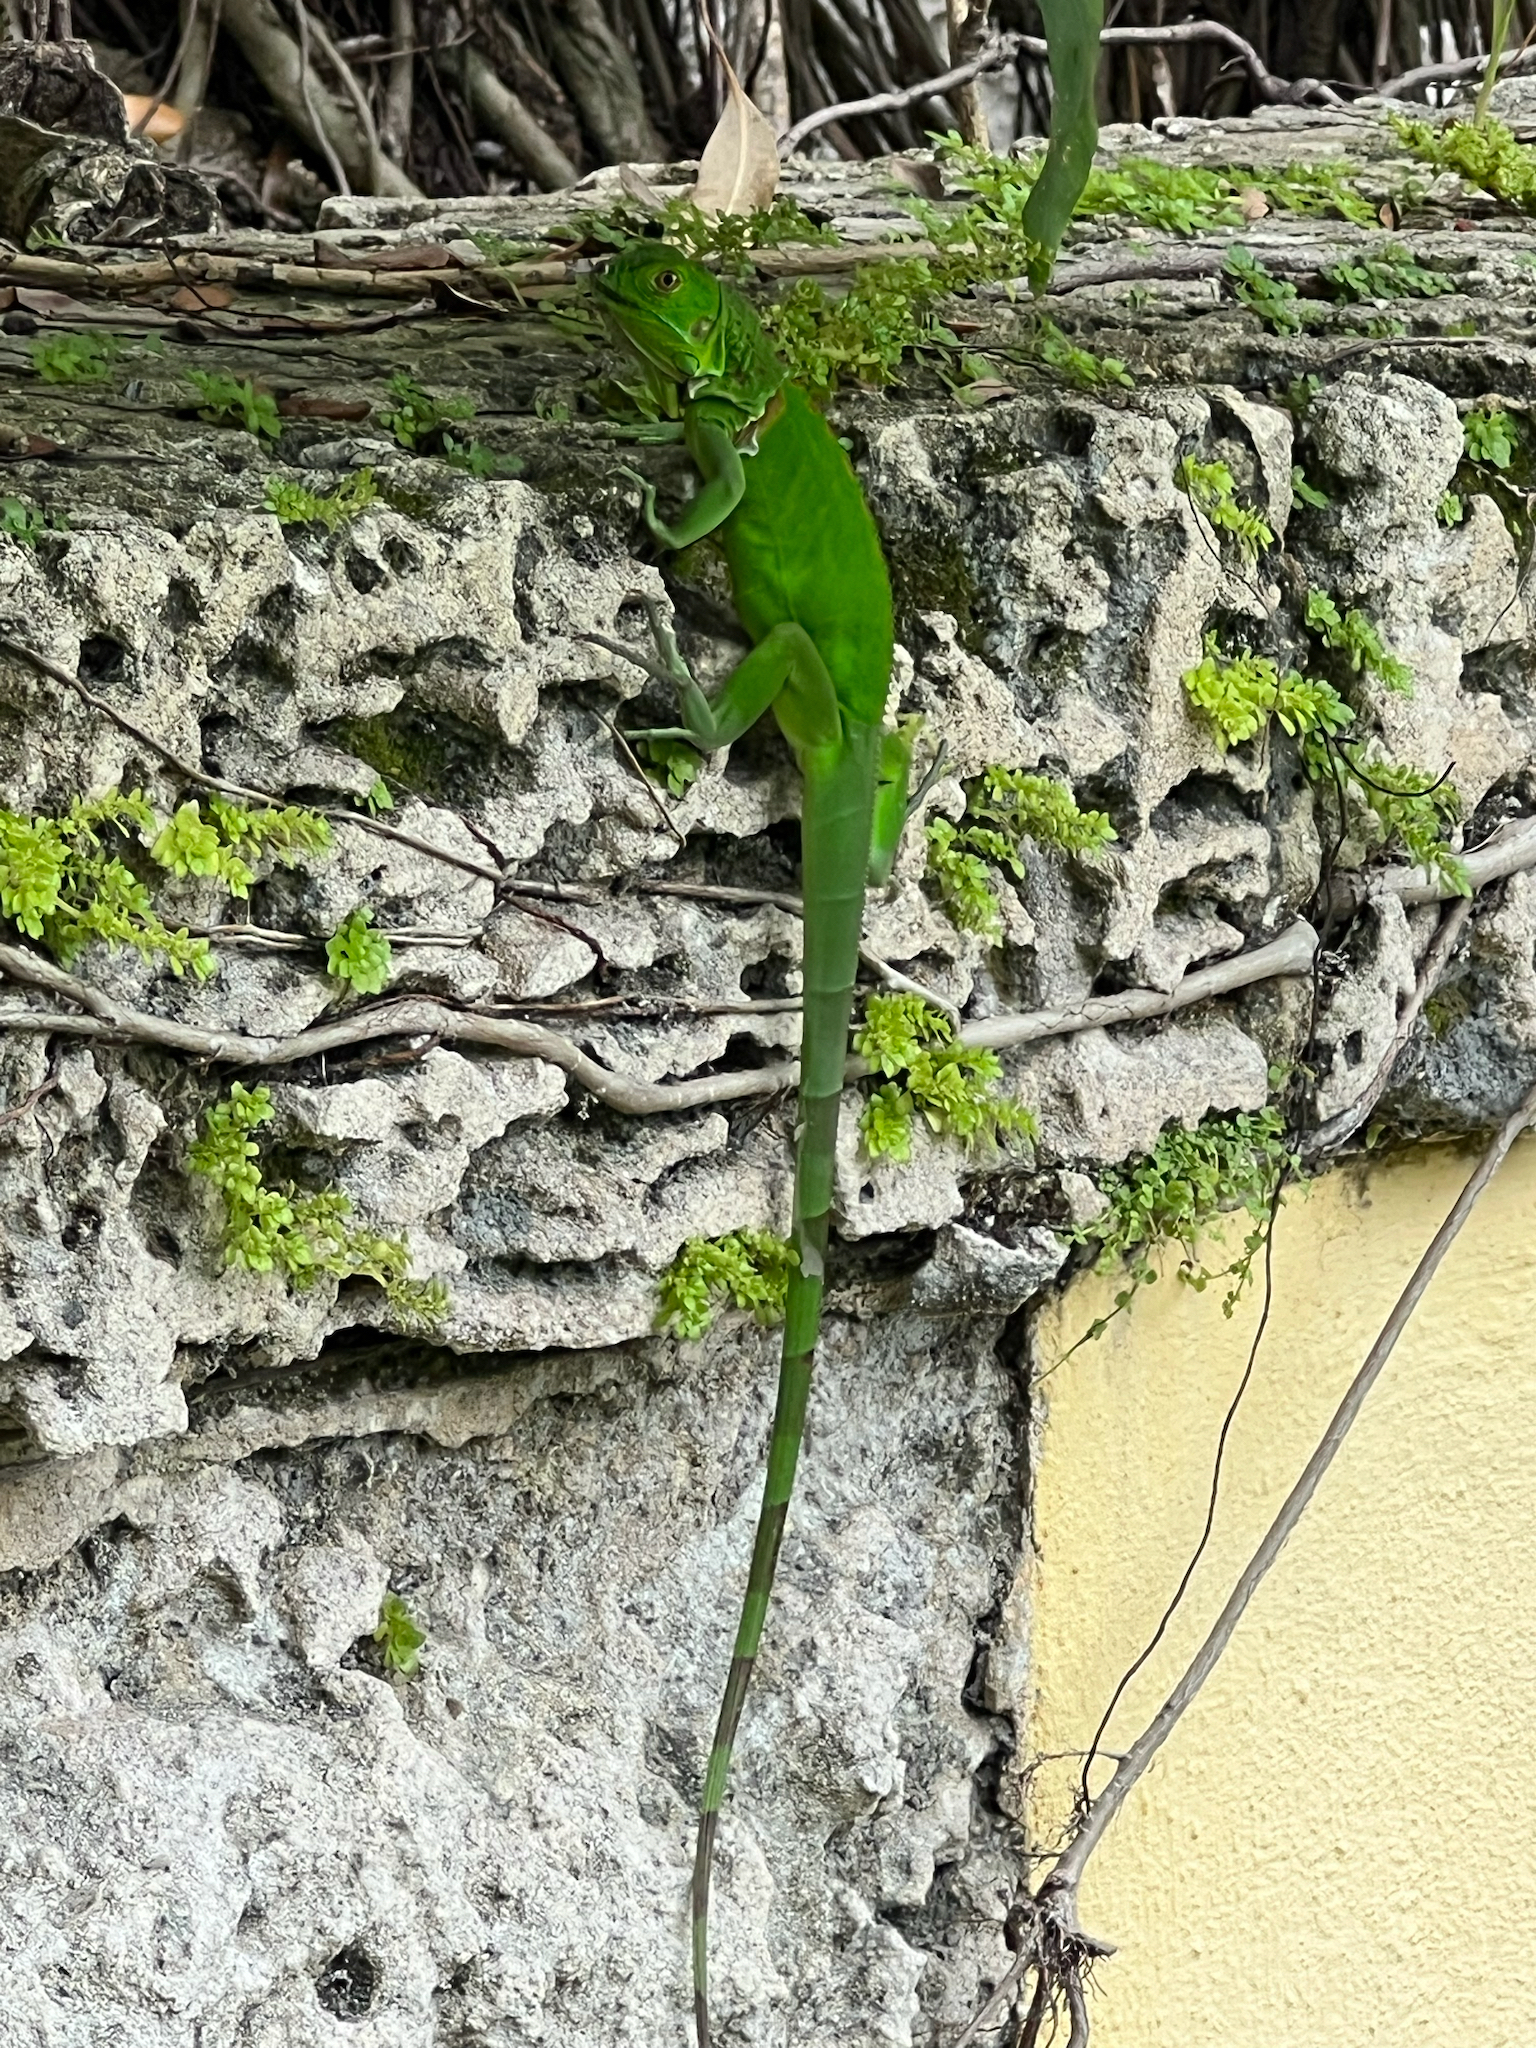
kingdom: Animalia
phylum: Chordata
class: Squamata
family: Iguanidae
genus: Iguana
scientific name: Iguana iguana
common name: Green iguana
